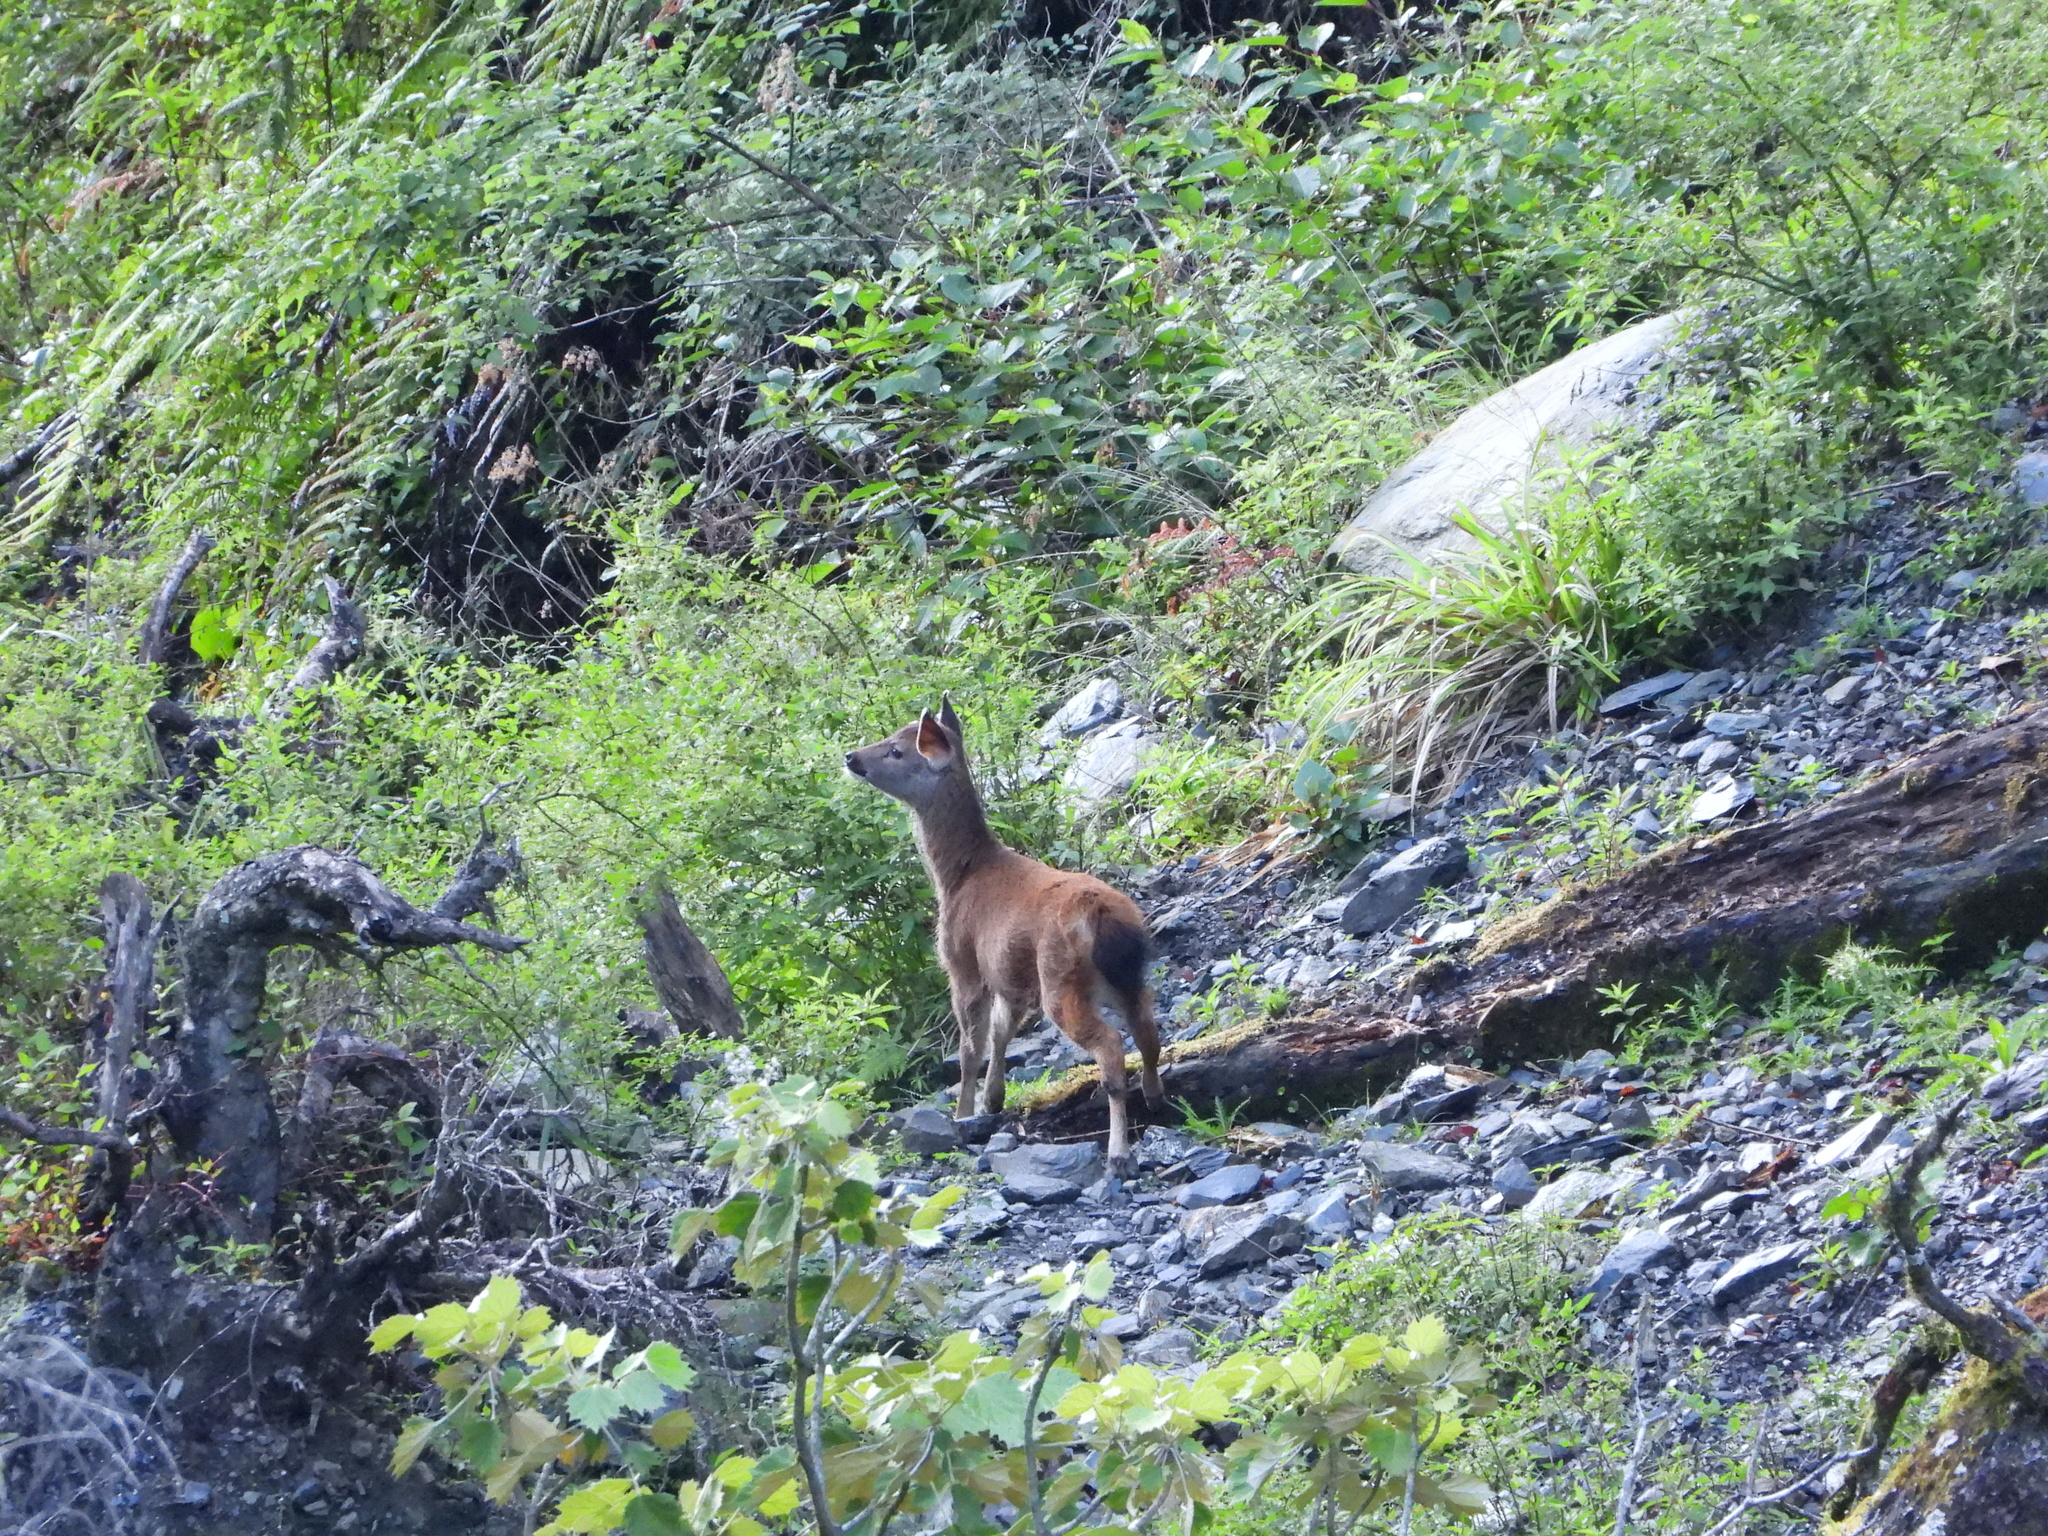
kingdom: Animalia
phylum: Chordata
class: Mammalia
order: Artiodactyla
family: Cervidae
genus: Rusa
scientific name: Rusa unicolor
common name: Sambar
